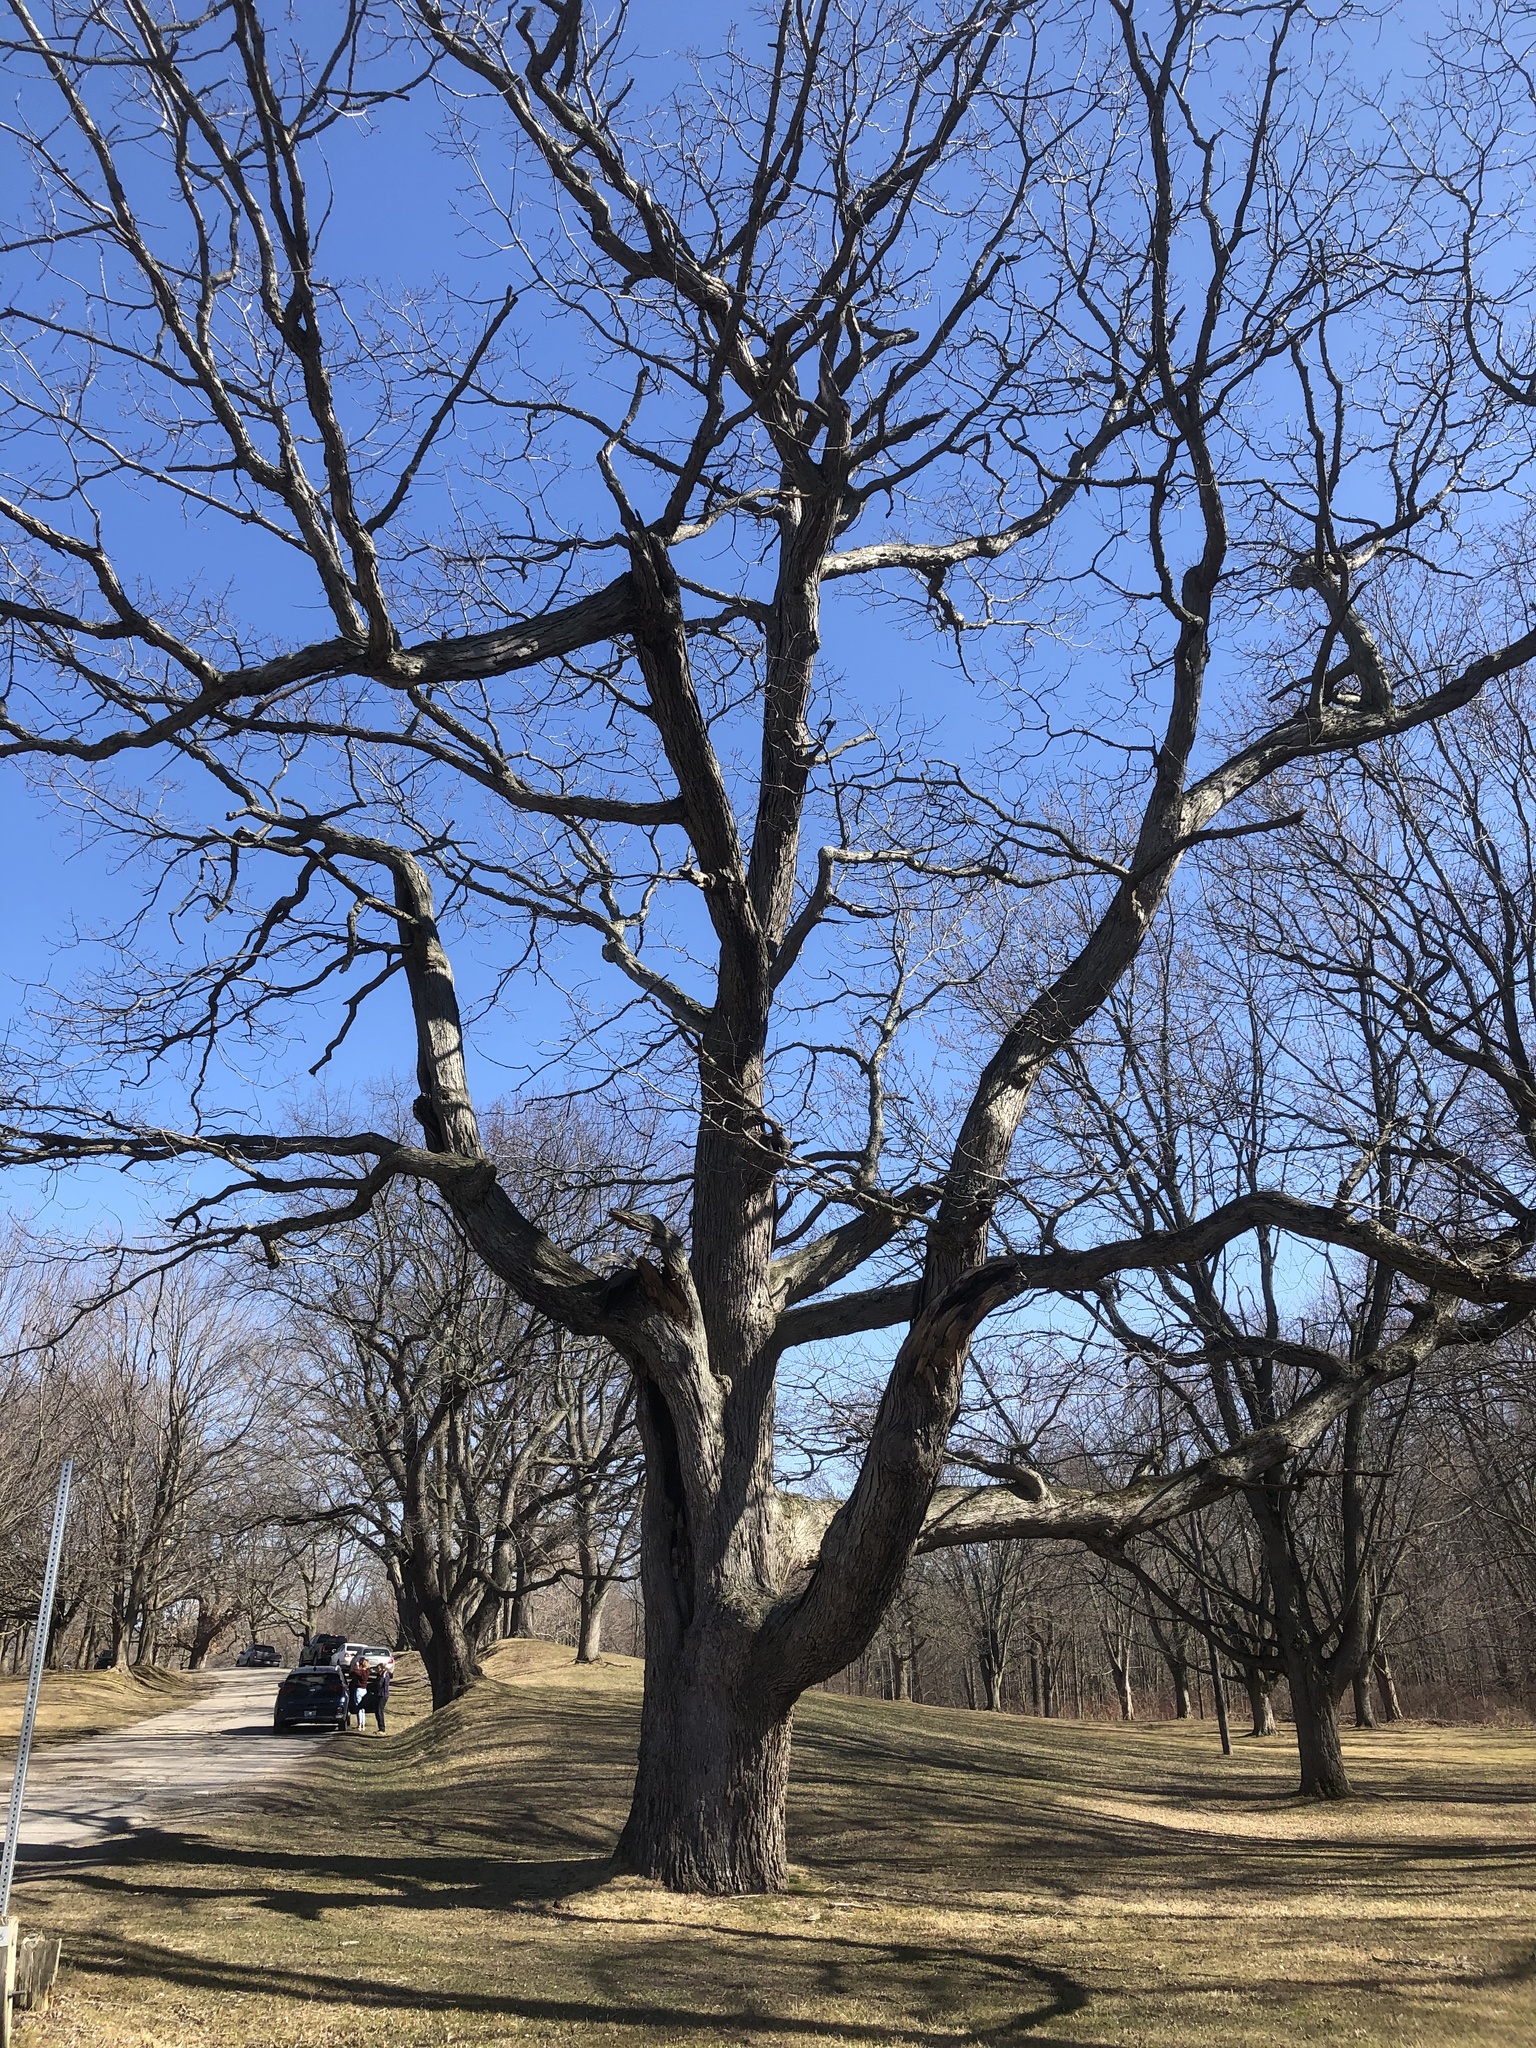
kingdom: Plantae
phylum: Tracheophyta
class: Magnoliopsida
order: Fagales
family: Fagaceae
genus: Quercus
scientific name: Quercus alba
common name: White oak
